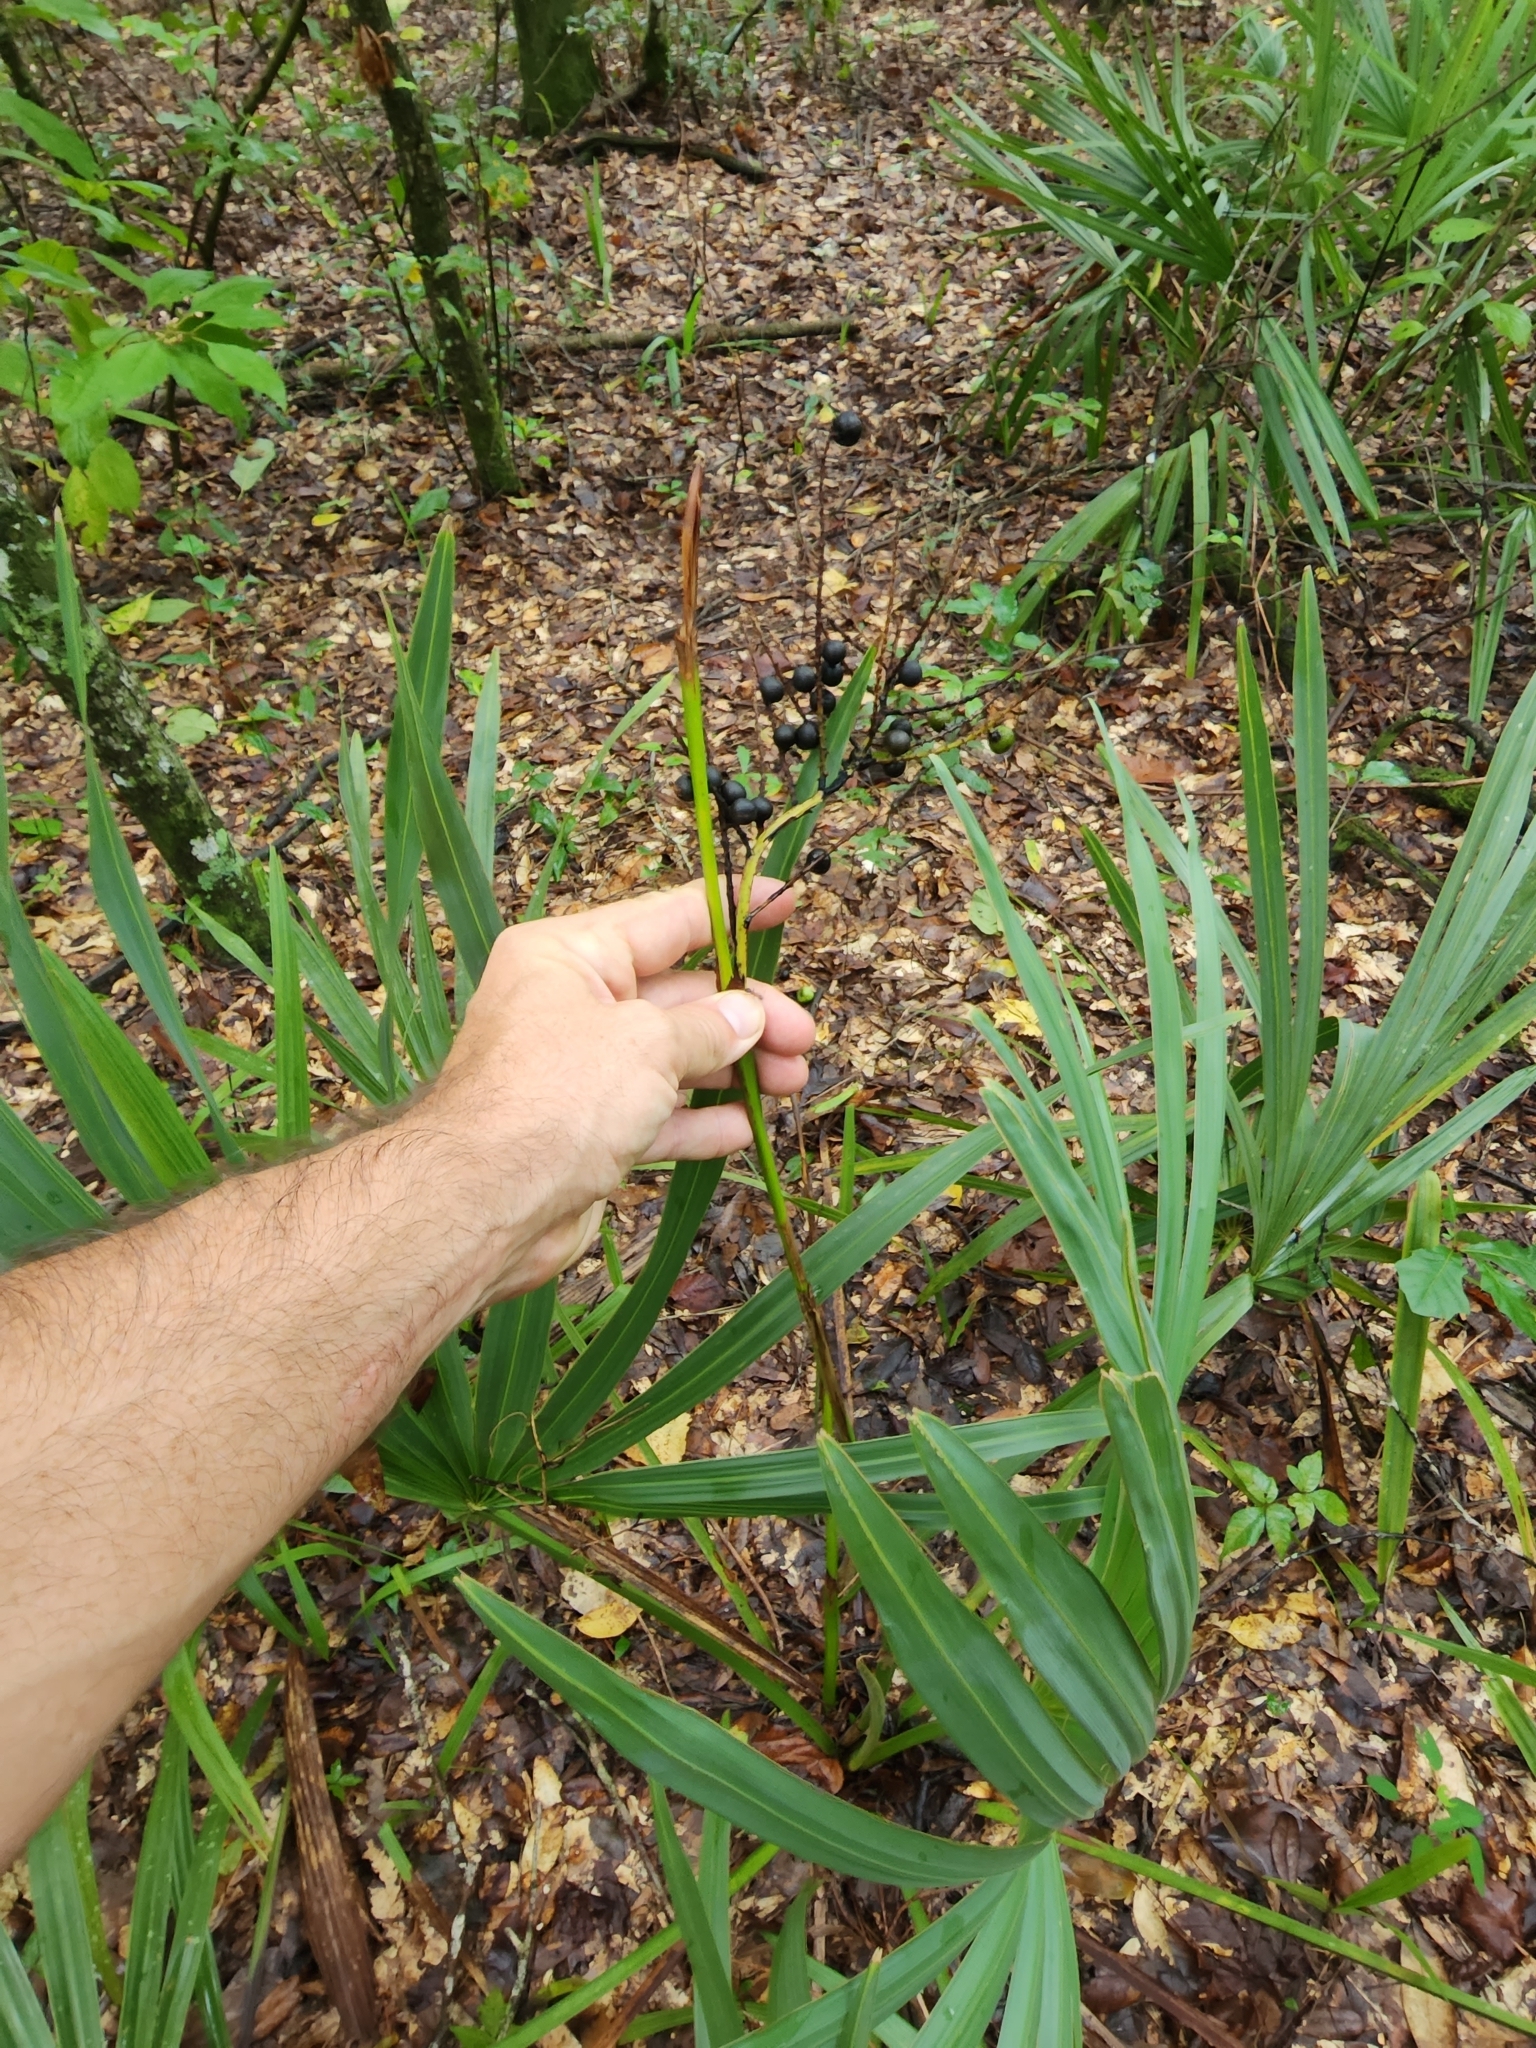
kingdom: Plantae
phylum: Tracheophyta
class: Liliopsida
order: Arecales
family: Arecaceae
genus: Sabal
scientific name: Sabal minor
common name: Dwarf palmetto
